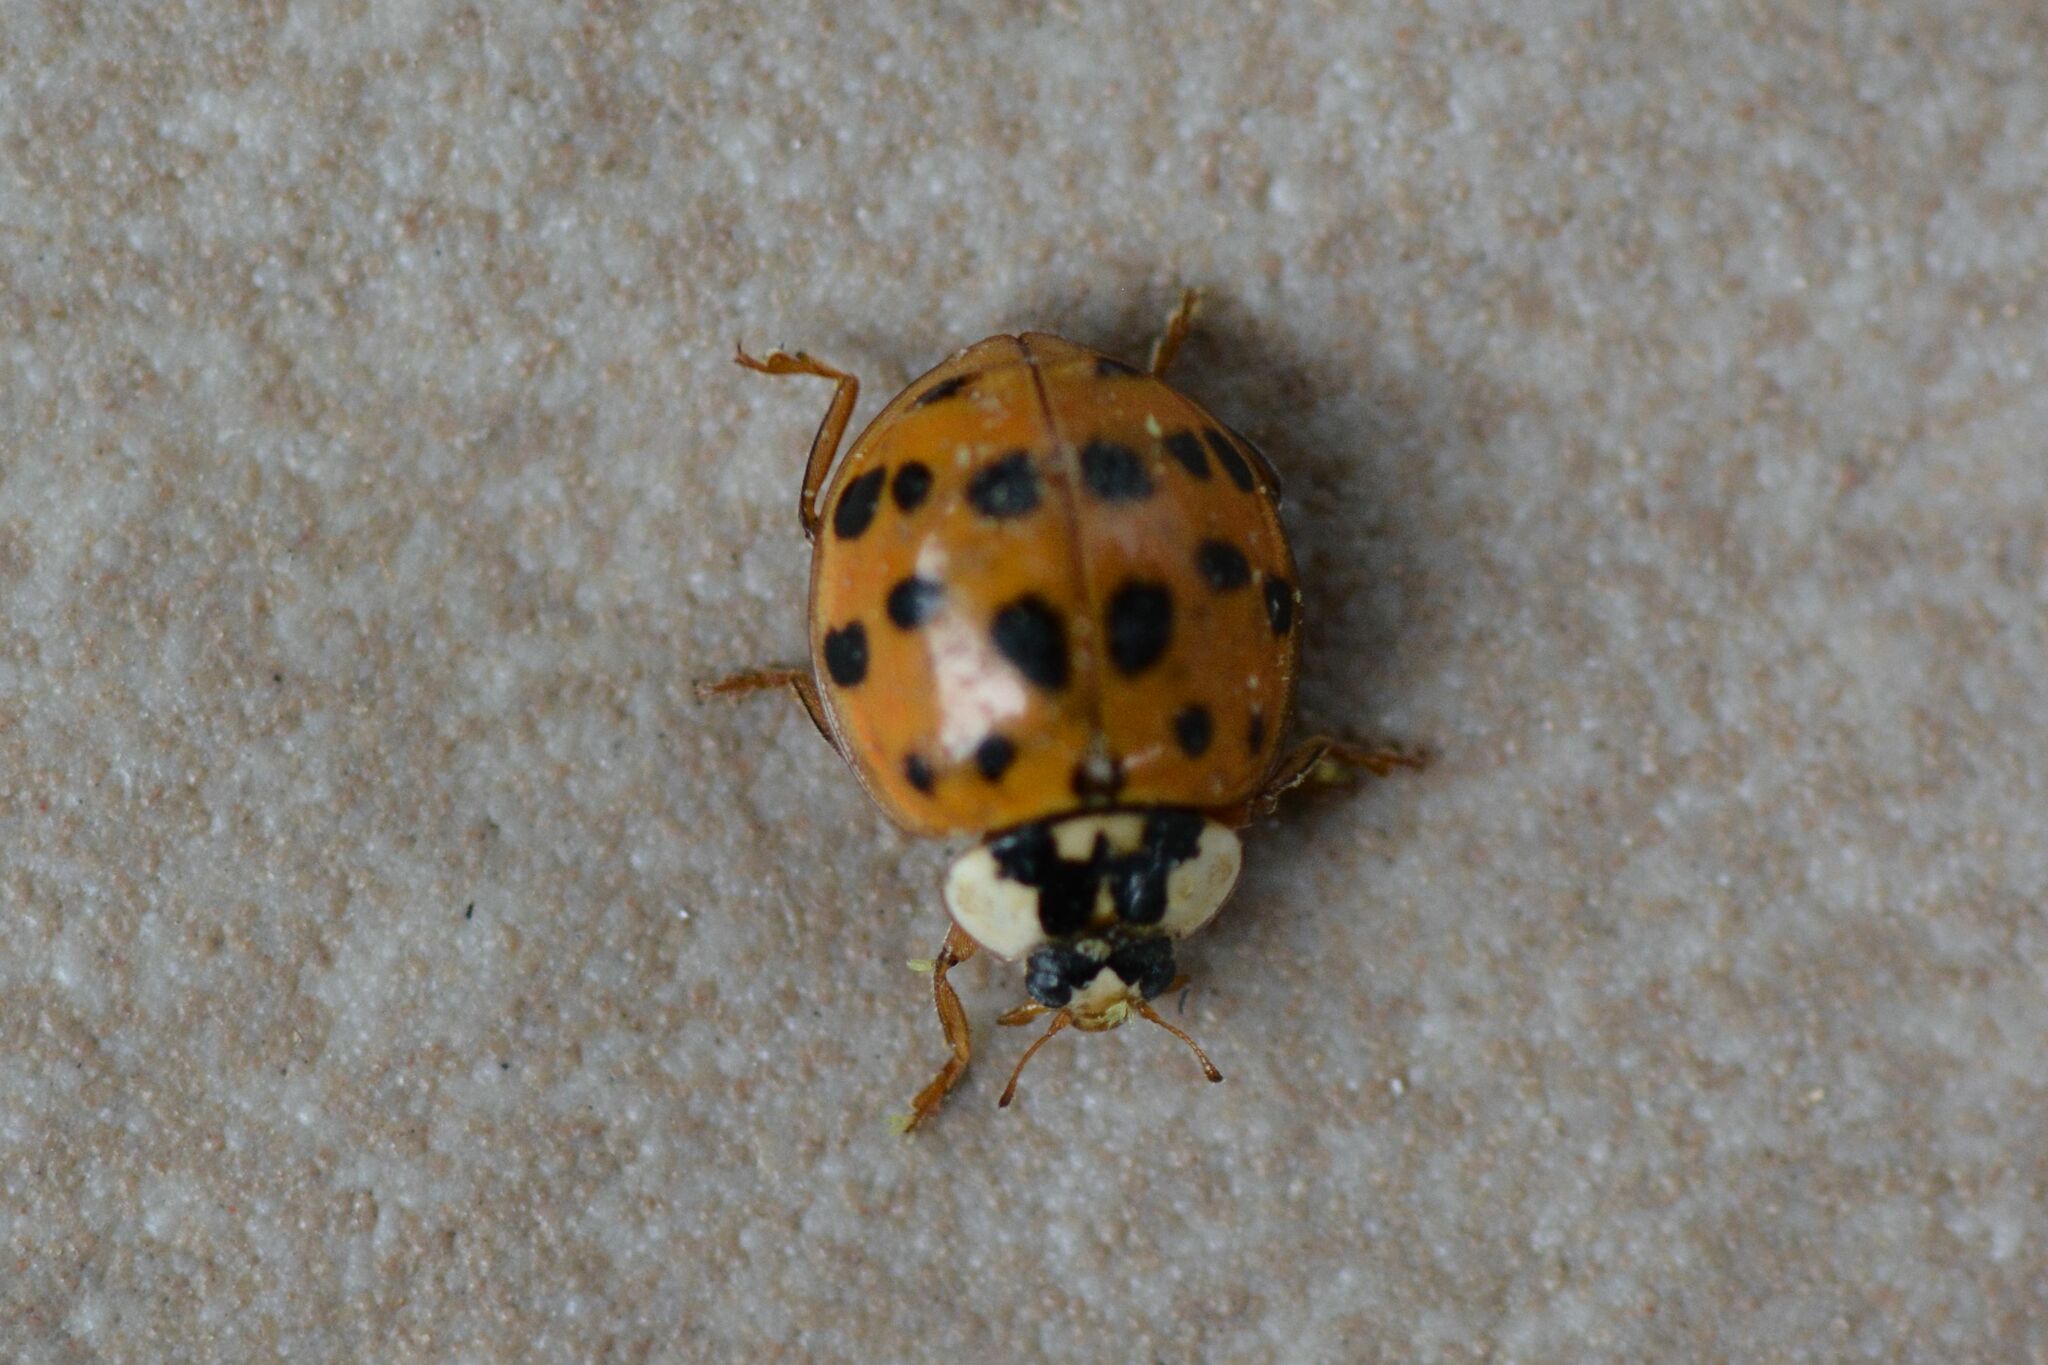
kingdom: Animalia
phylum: Arthropoda
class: Insecta
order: Coleoptera
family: Coccinellidae
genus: Harmonia
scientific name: Harmonia axyridis
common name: Harlequin ladybird
